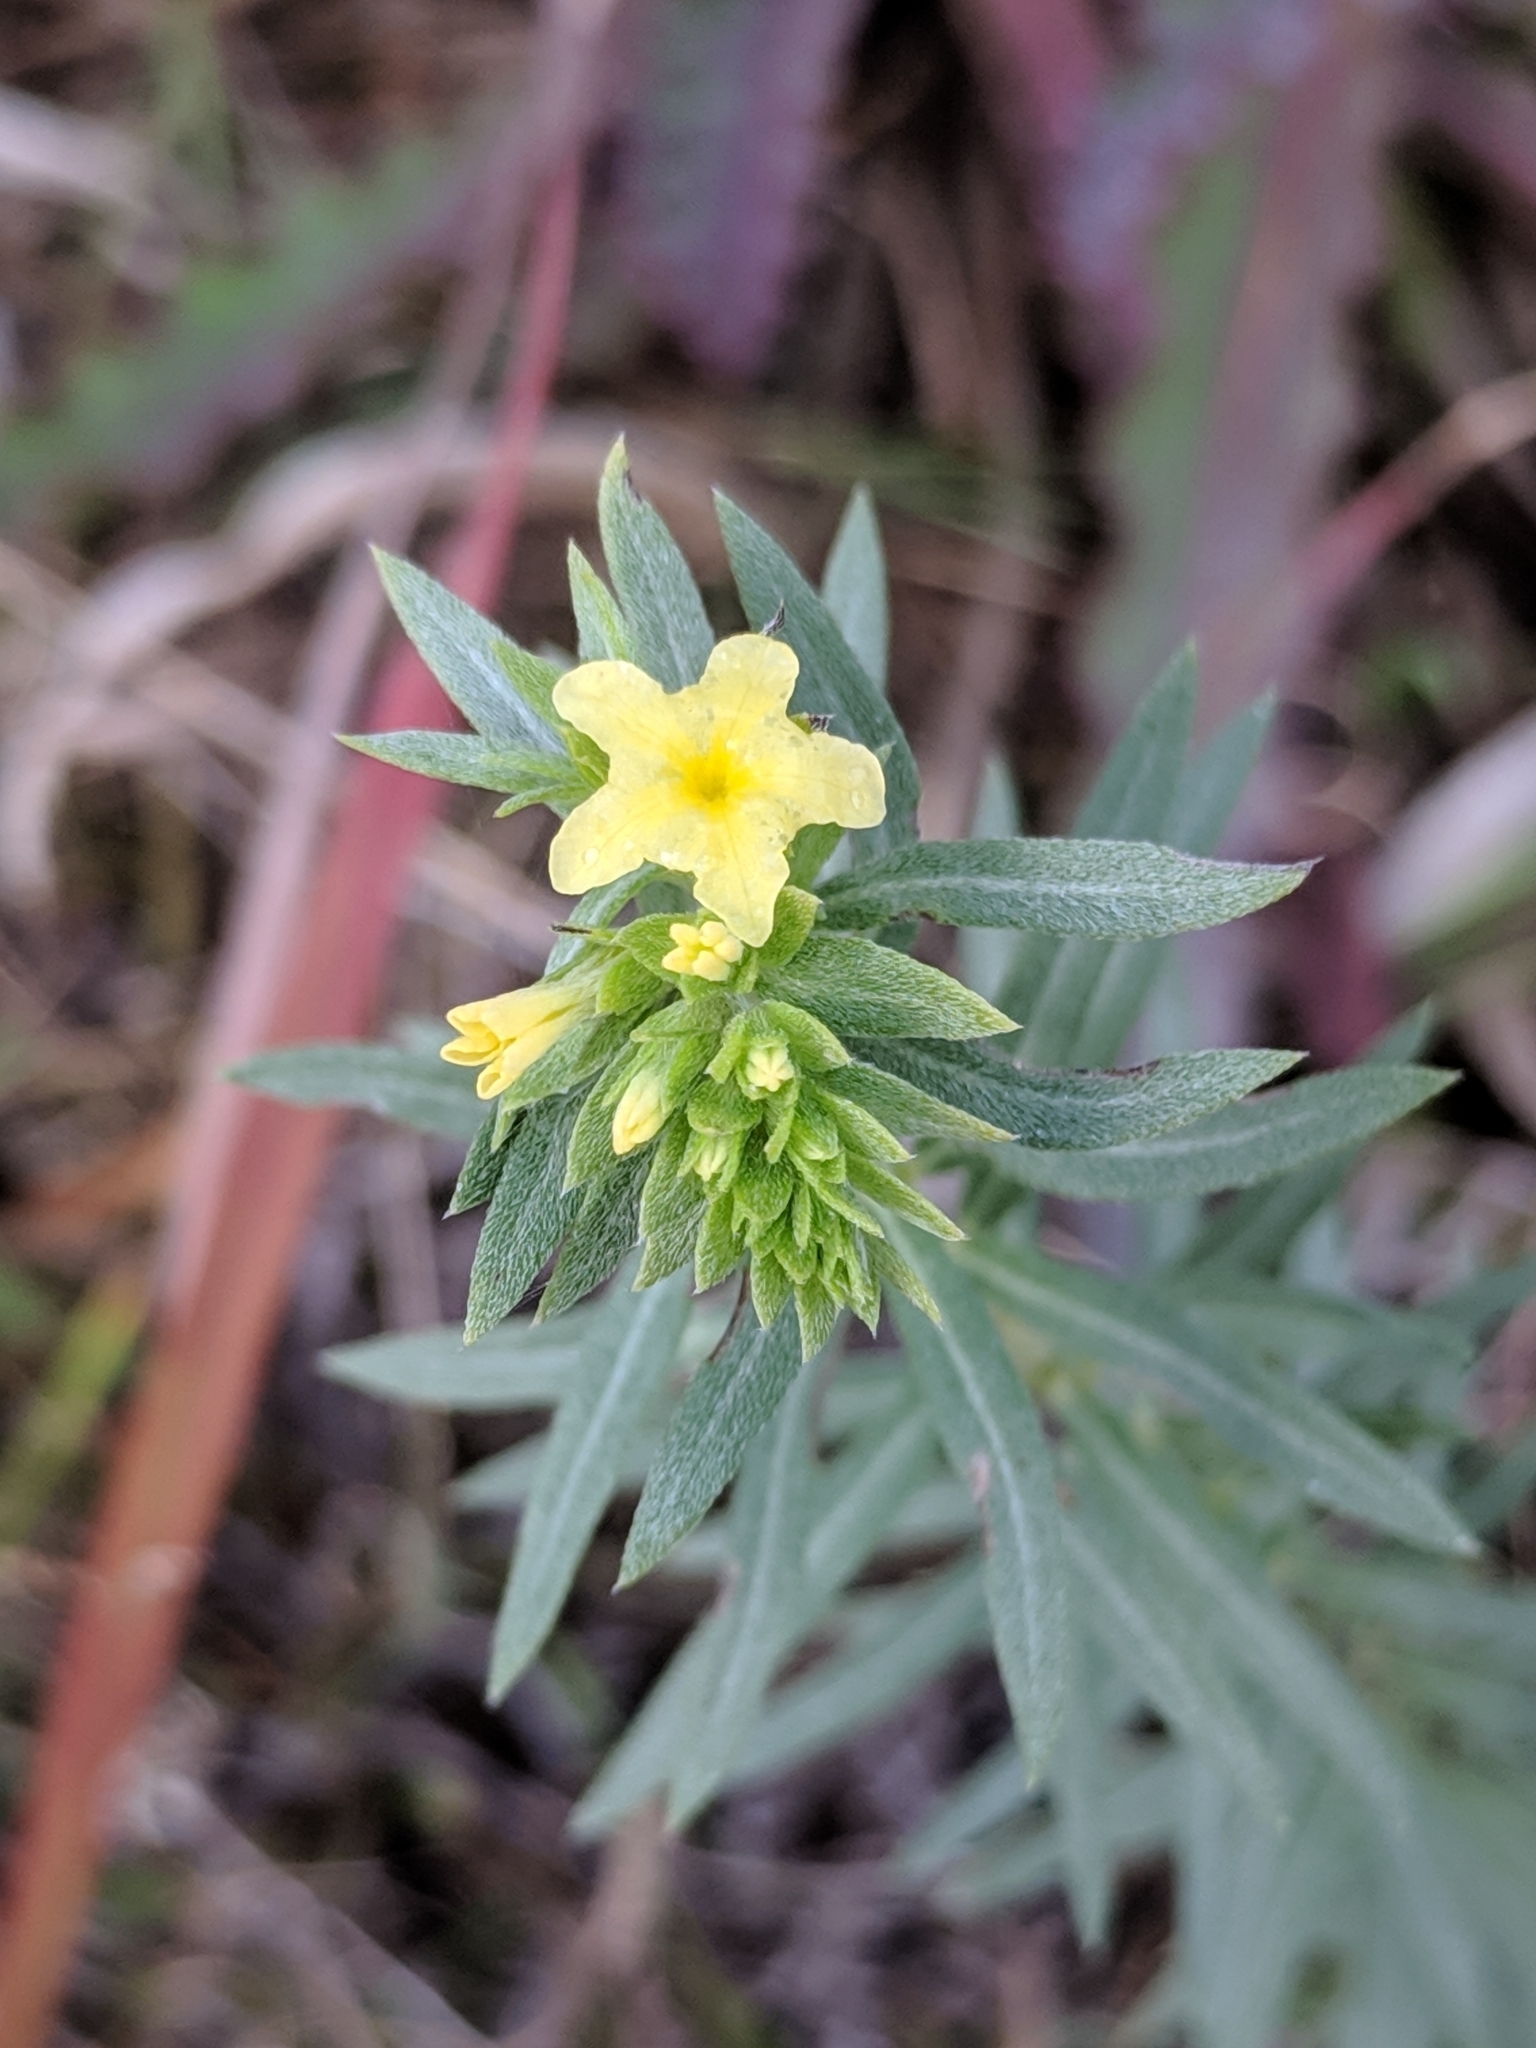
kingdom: Plantae
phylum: Tracheophyta
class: Magnoliopsida
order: Boraginales
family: Heliotropiaceae
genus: Euploca
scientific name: Euploca polyphylla
